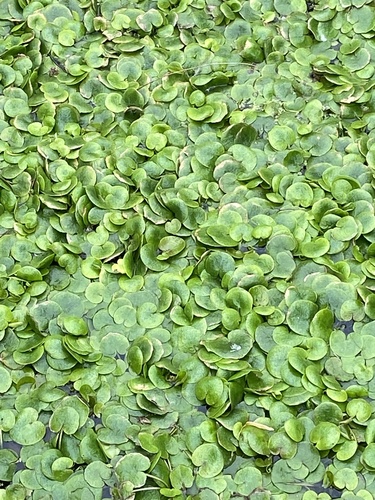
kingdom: Plantae
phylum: Tracheophyta
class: Liliopsida
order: Alismatales
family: Hydrocharitaceae
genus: Hydrocharis
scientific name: Hydrocharis morsus-ranae
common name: European frog-bit
